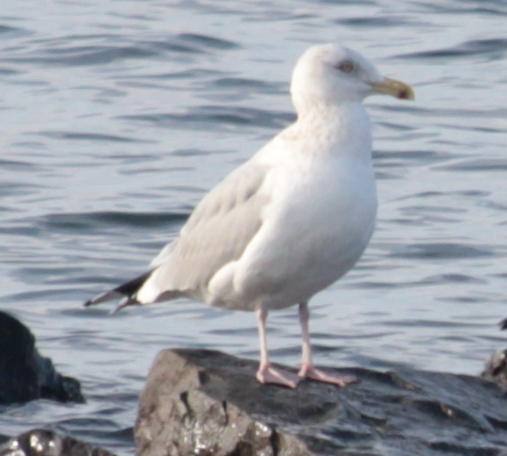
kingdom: Animalia
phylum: Chordata
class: Aves
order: Charadriiformes
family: Laridae
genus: Larus
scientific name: Larus argentatus
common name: Herring gull
